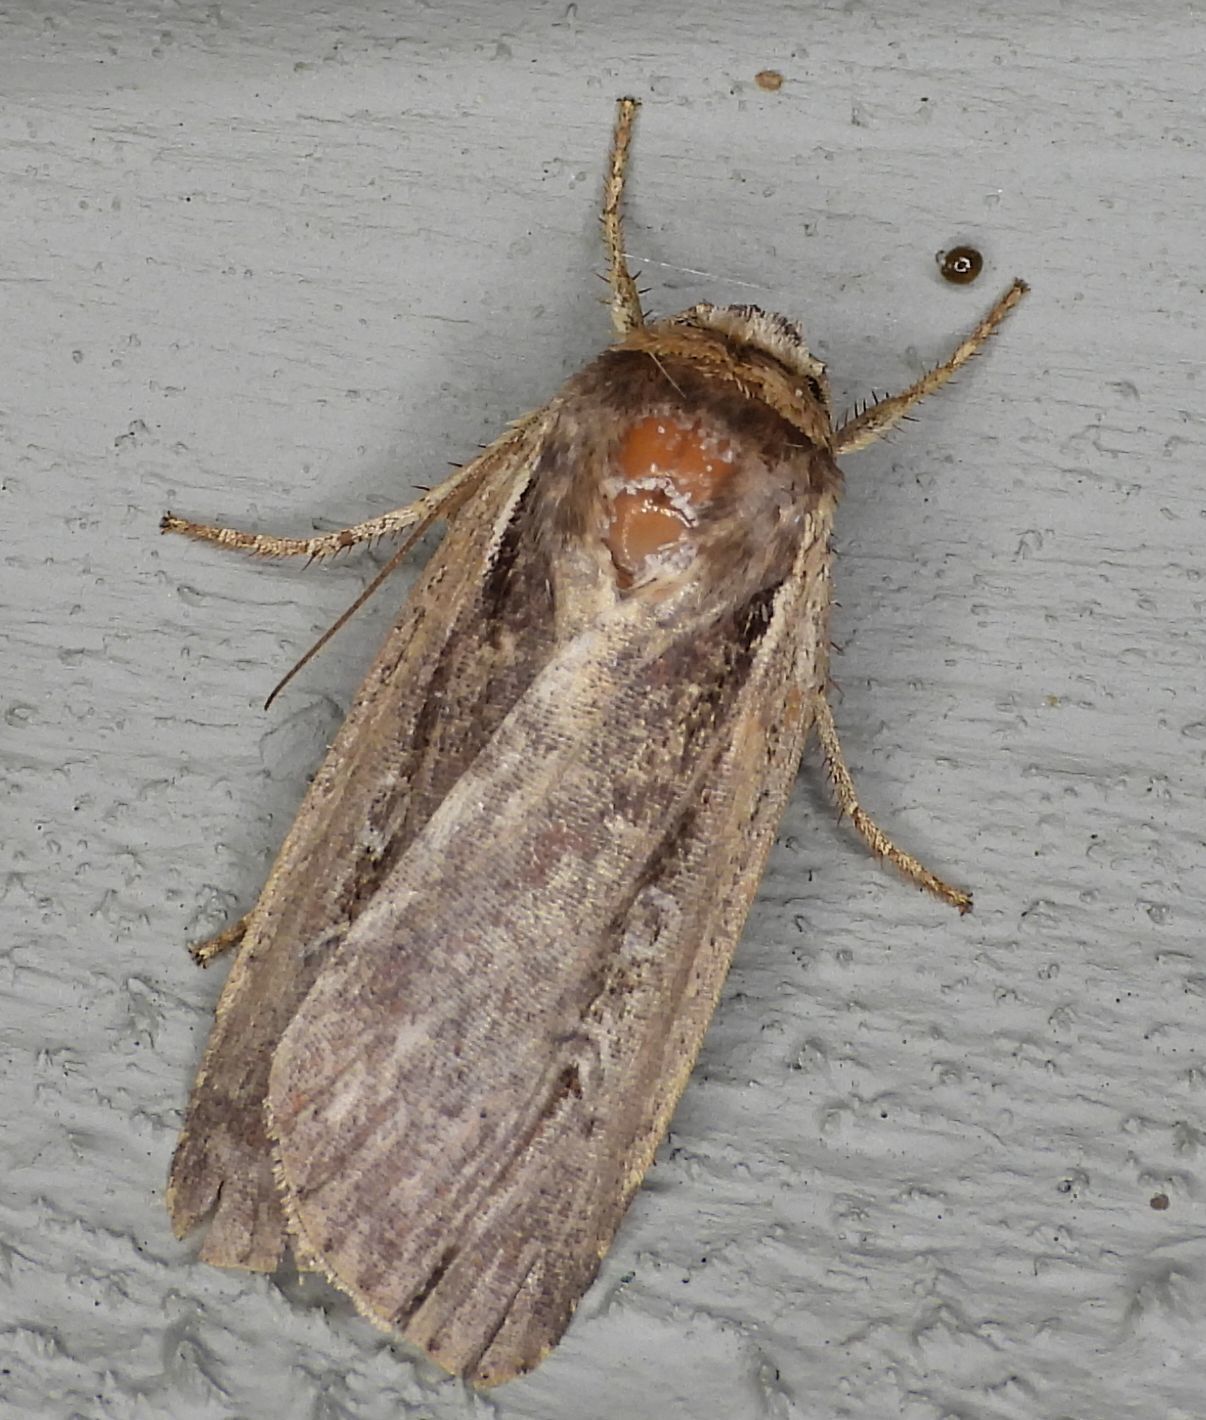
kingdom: Animalia
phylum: Arthropoda
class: Insecta
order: Lepidoptera
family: Noctuidae
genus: Ochropleura
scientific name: Ochropleura implecta
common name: Flame-shouldered dart
